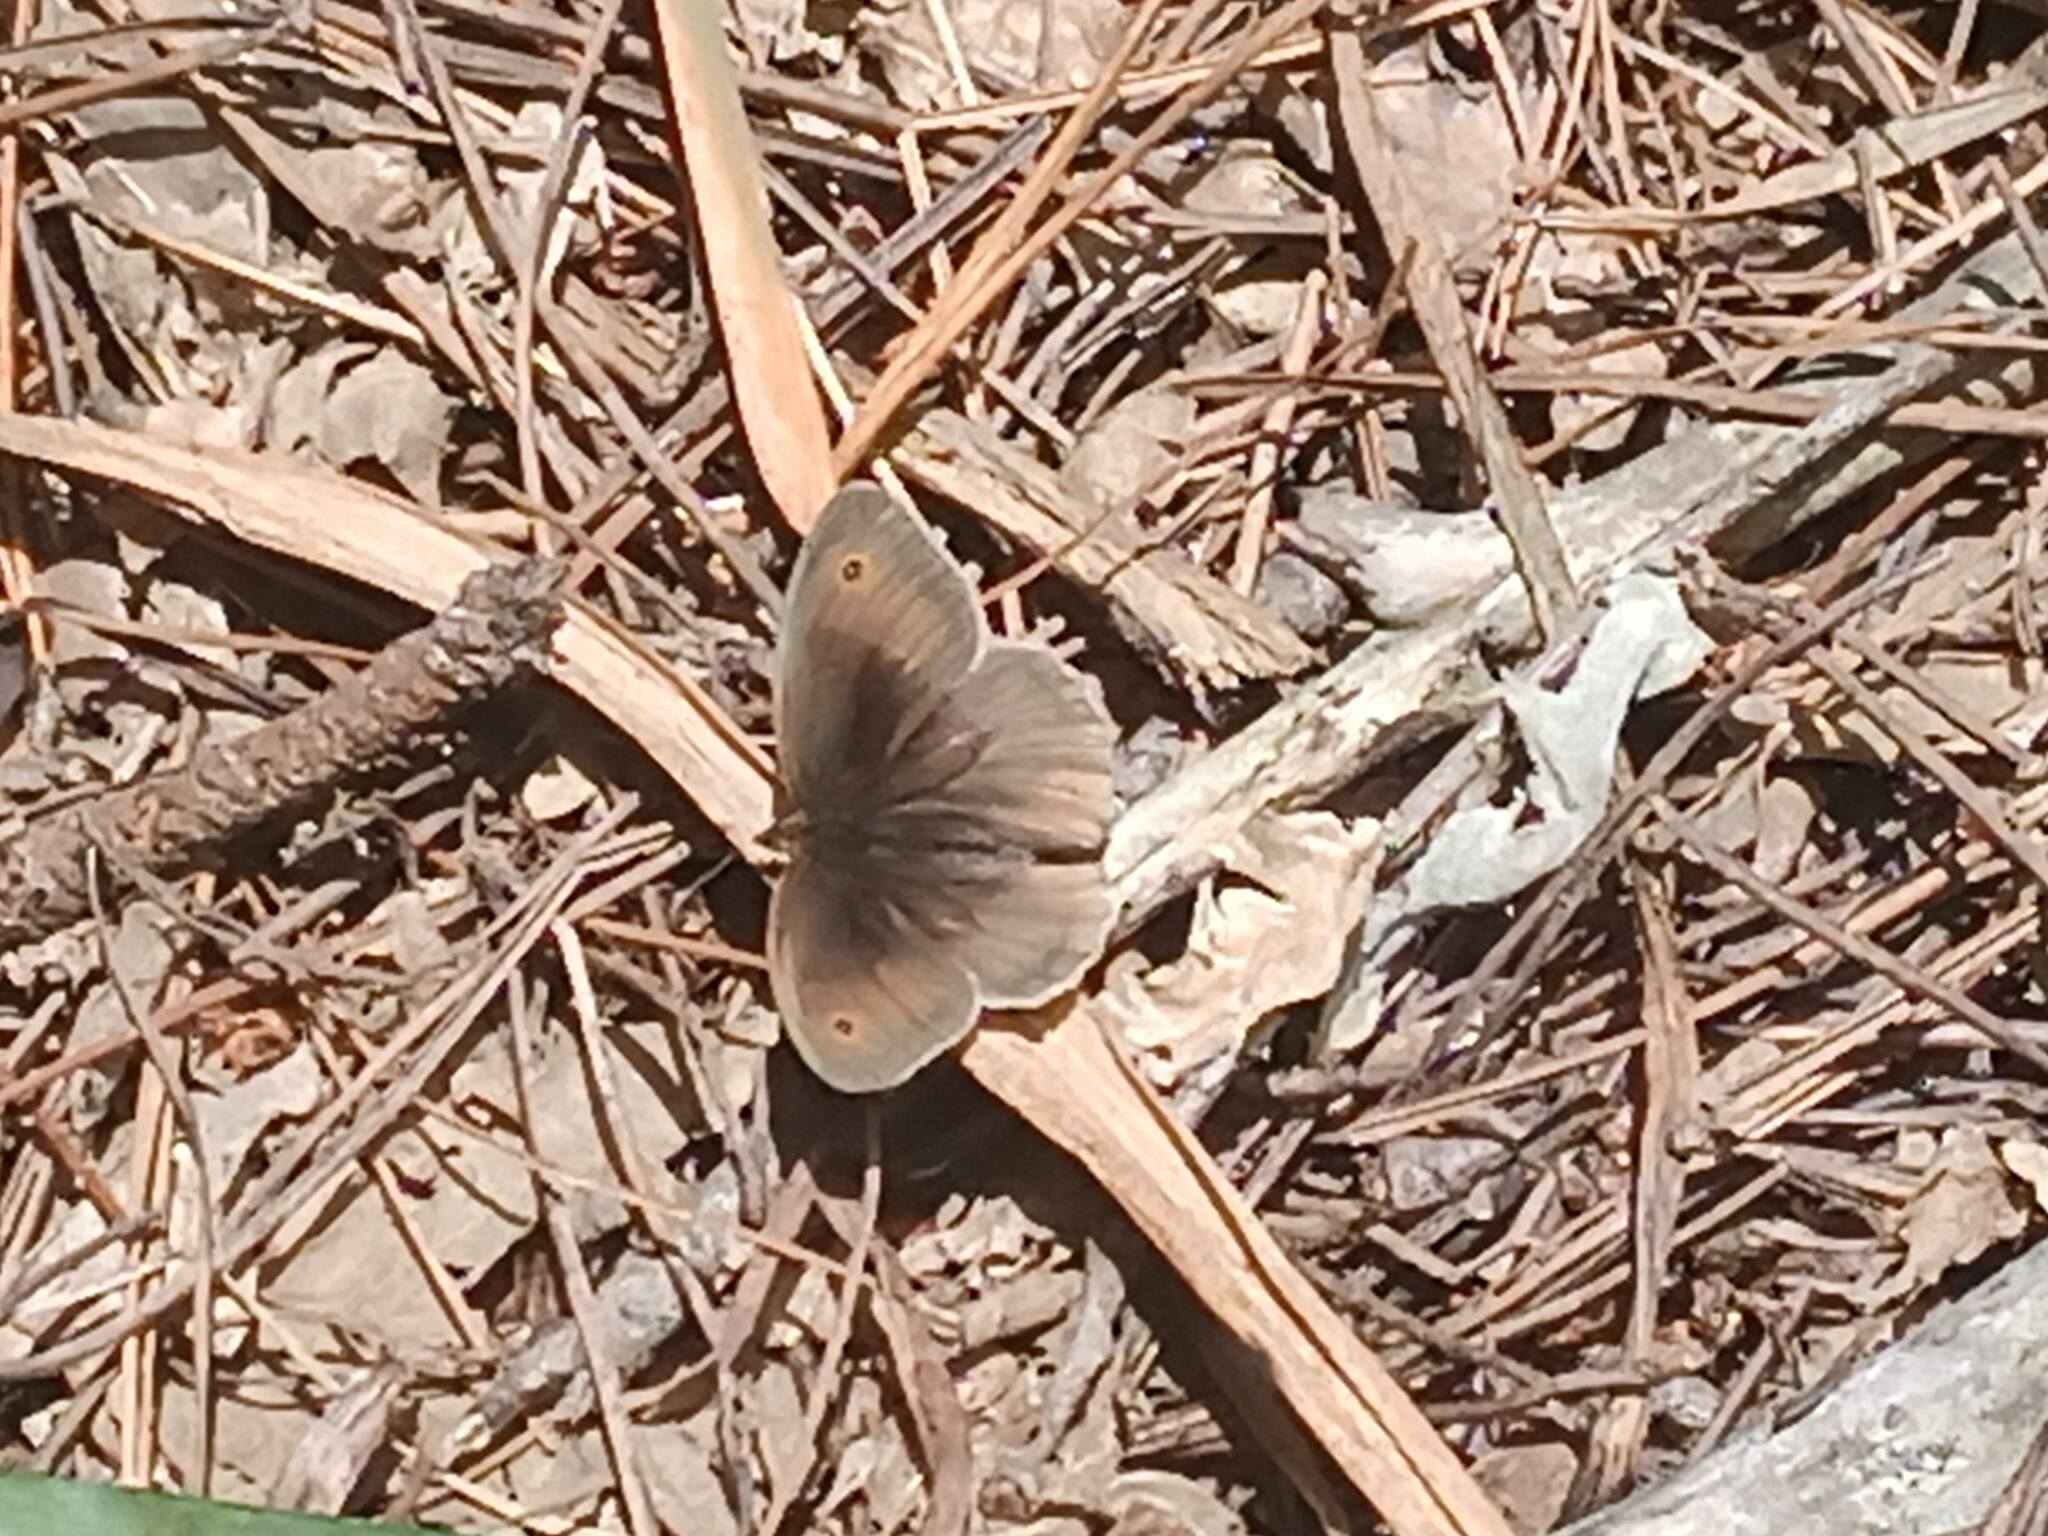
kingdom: Animalia
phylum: Arthropoda
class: Insecta
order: Lepidoptera
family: Nymphalidae
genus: Maniola
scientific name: Maniola jurtina
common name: Meadow brown
